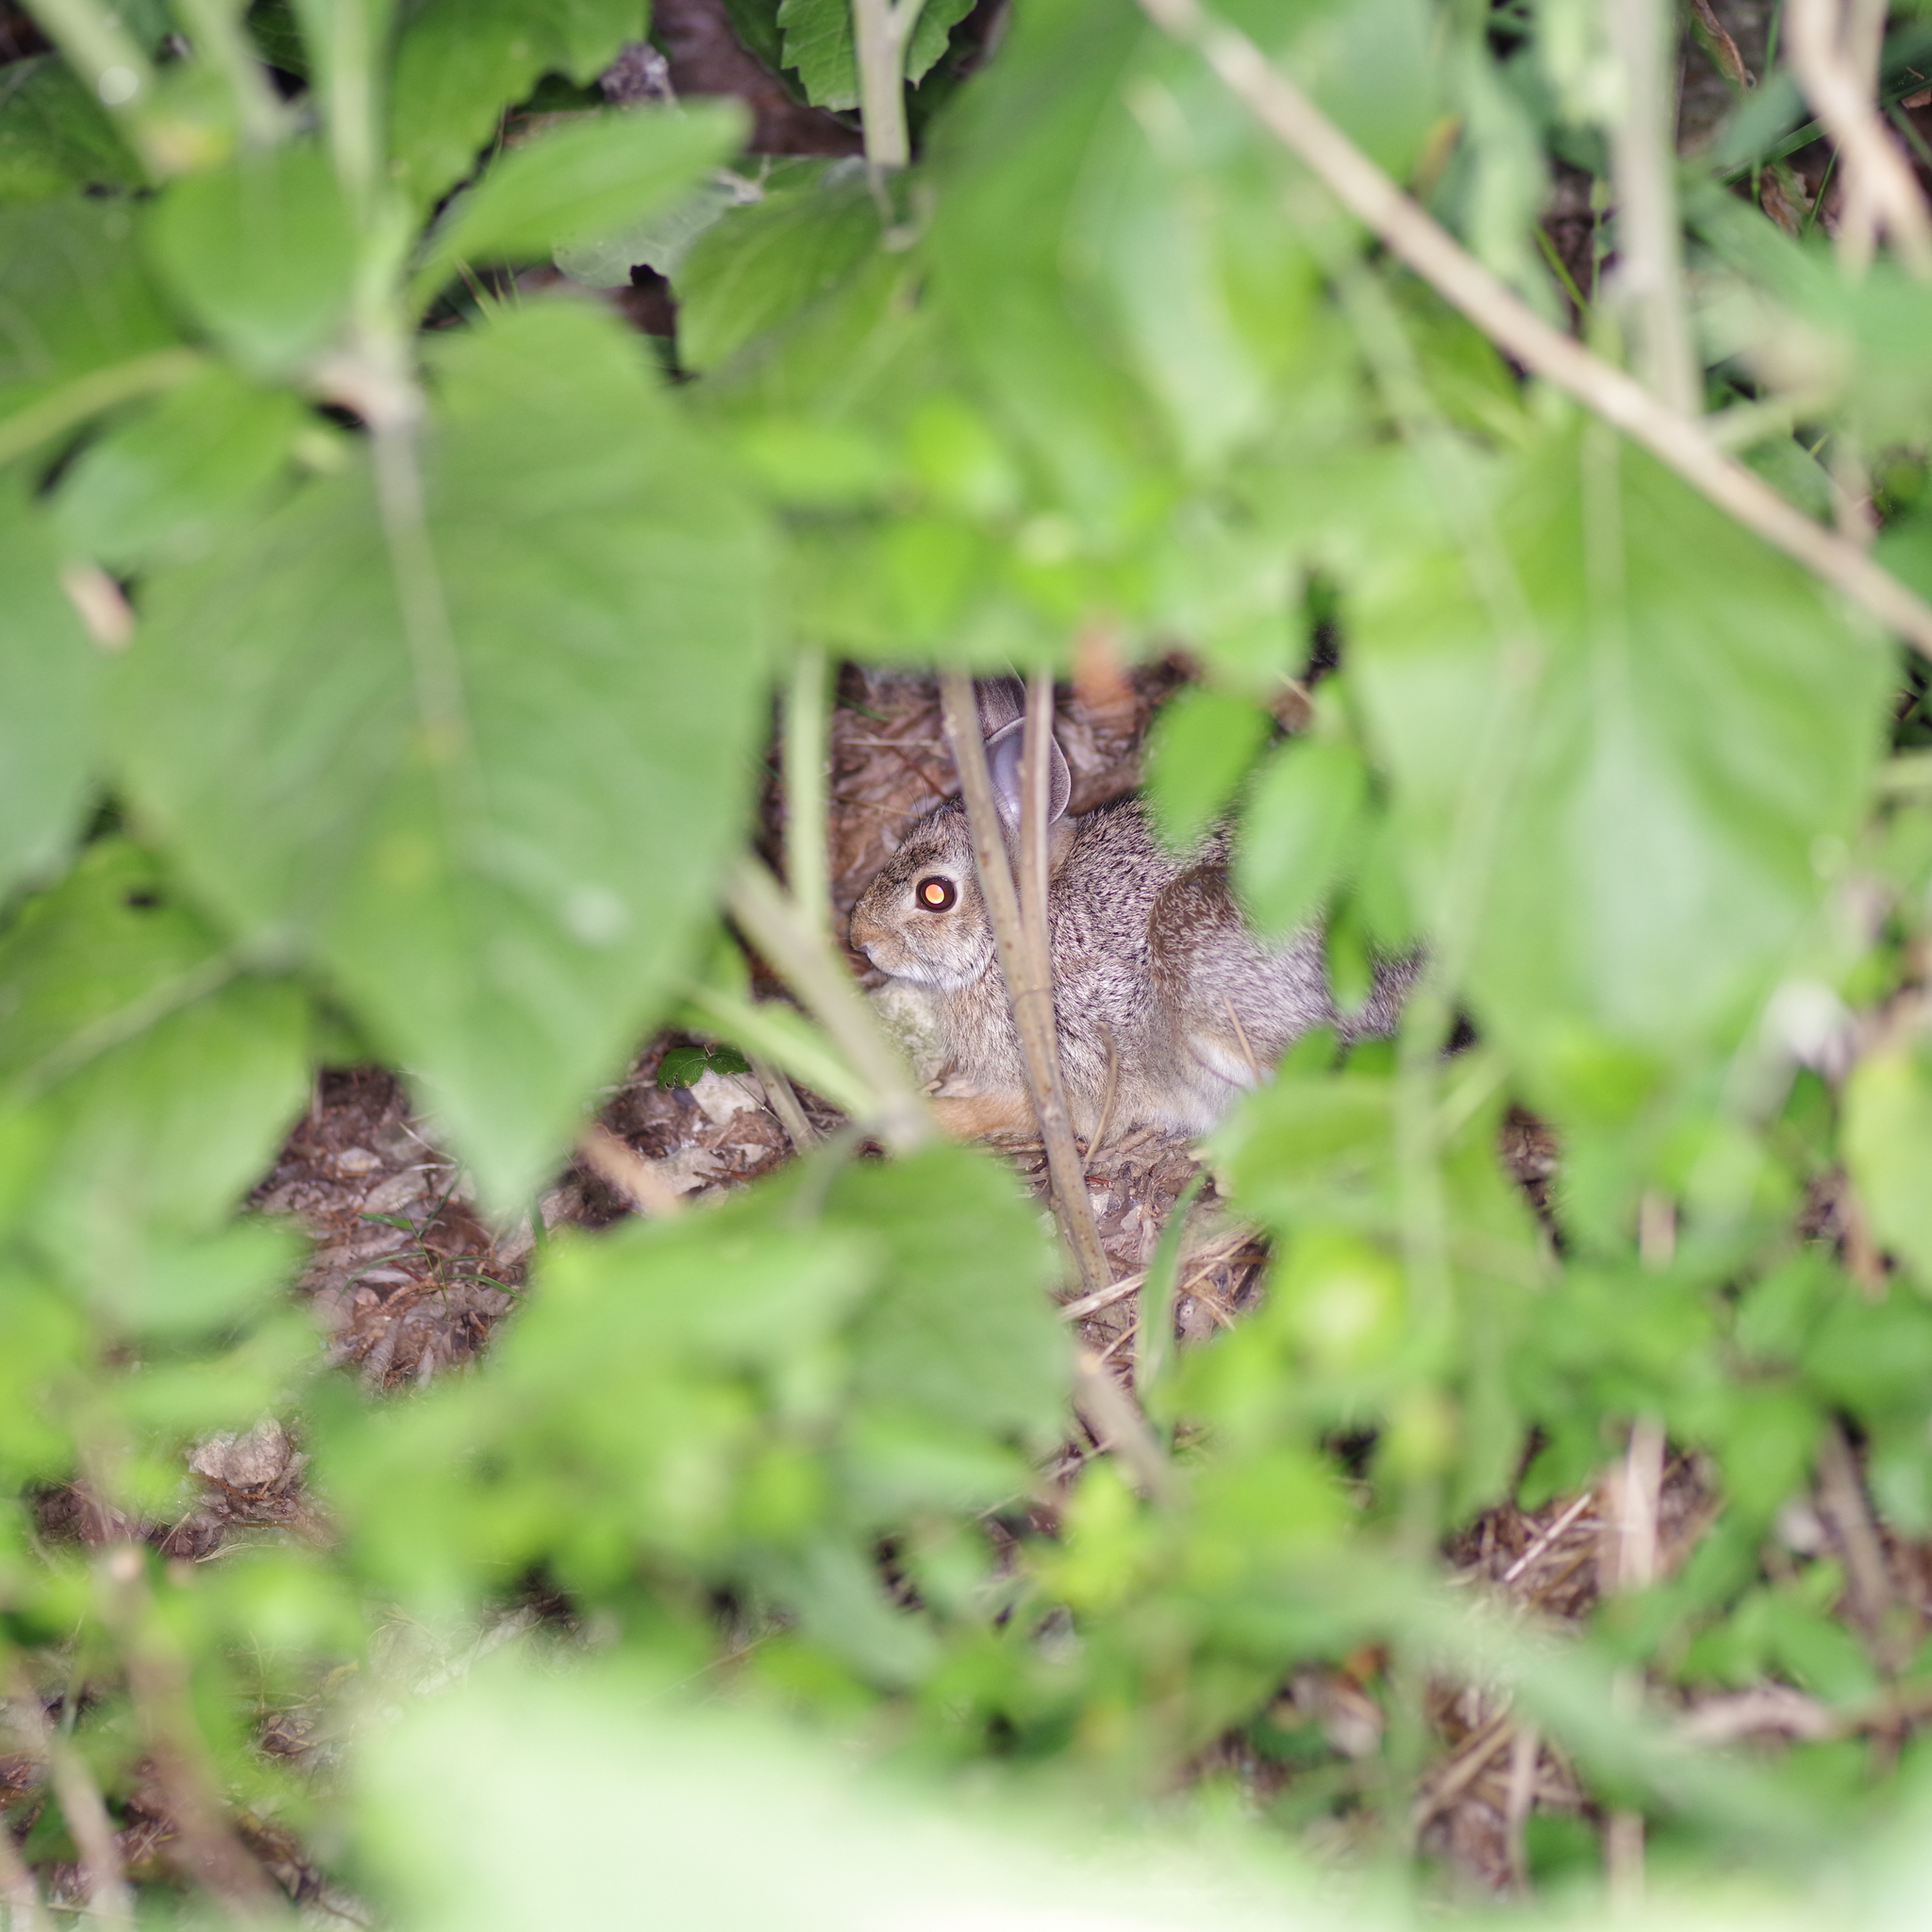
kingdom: Animalia
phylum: Chordata
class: Mammalia
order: Lagomorpha
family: Leporidae
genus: Sylvilagus
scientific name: Sylvilagus floridanus
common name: Eastern cottontail
